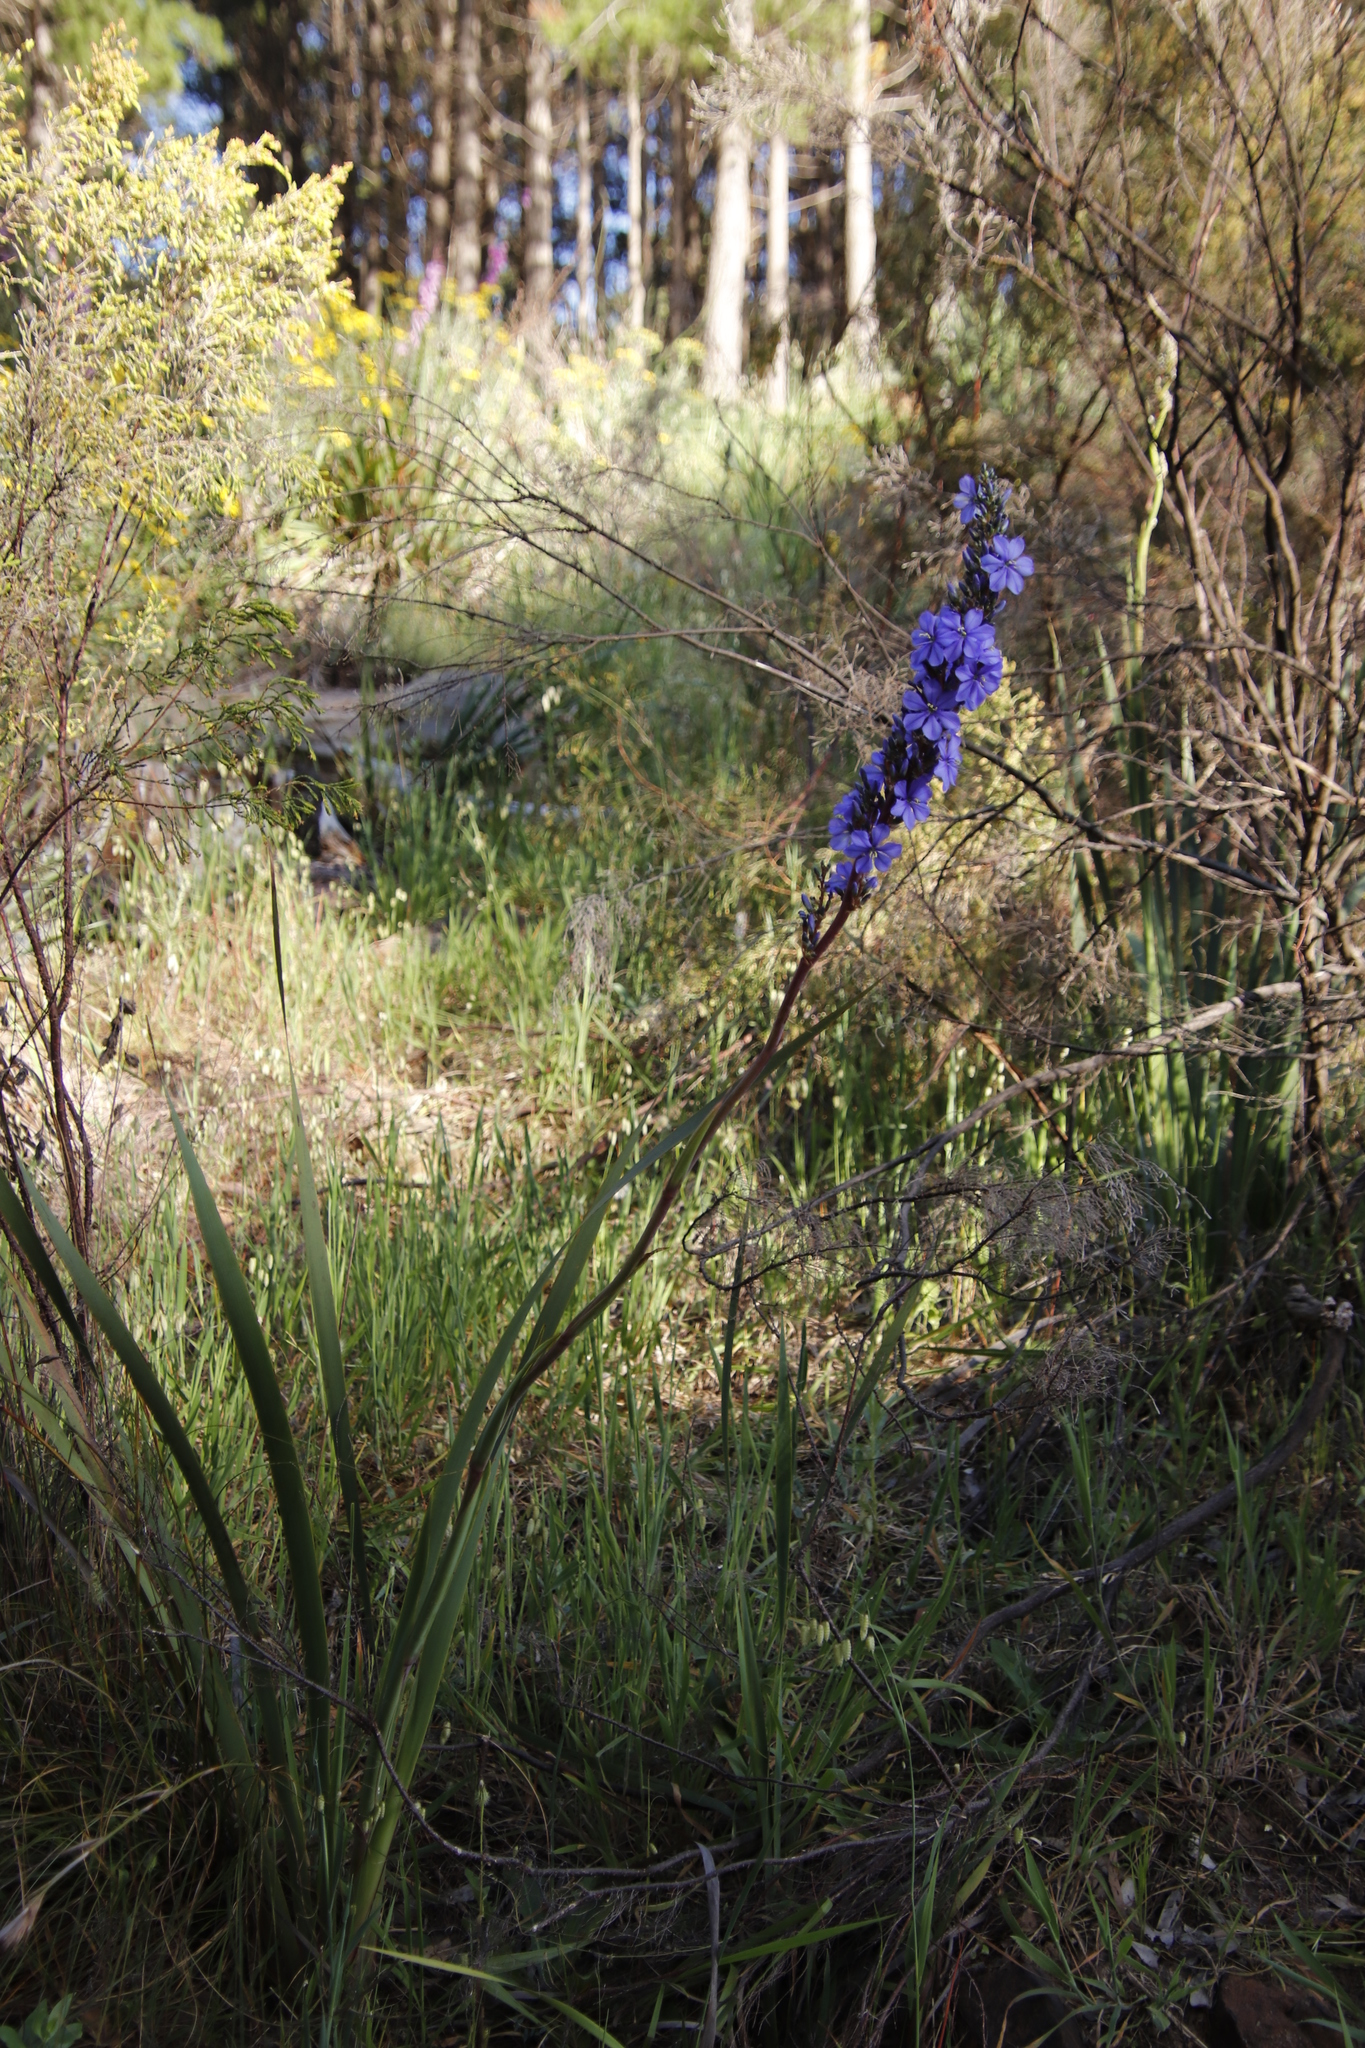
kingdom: Plantae
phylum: Tracheophyta
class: Liliopsida
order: Asparagales
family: Iridaceae
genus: Aristea
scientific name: Aristea capitata
